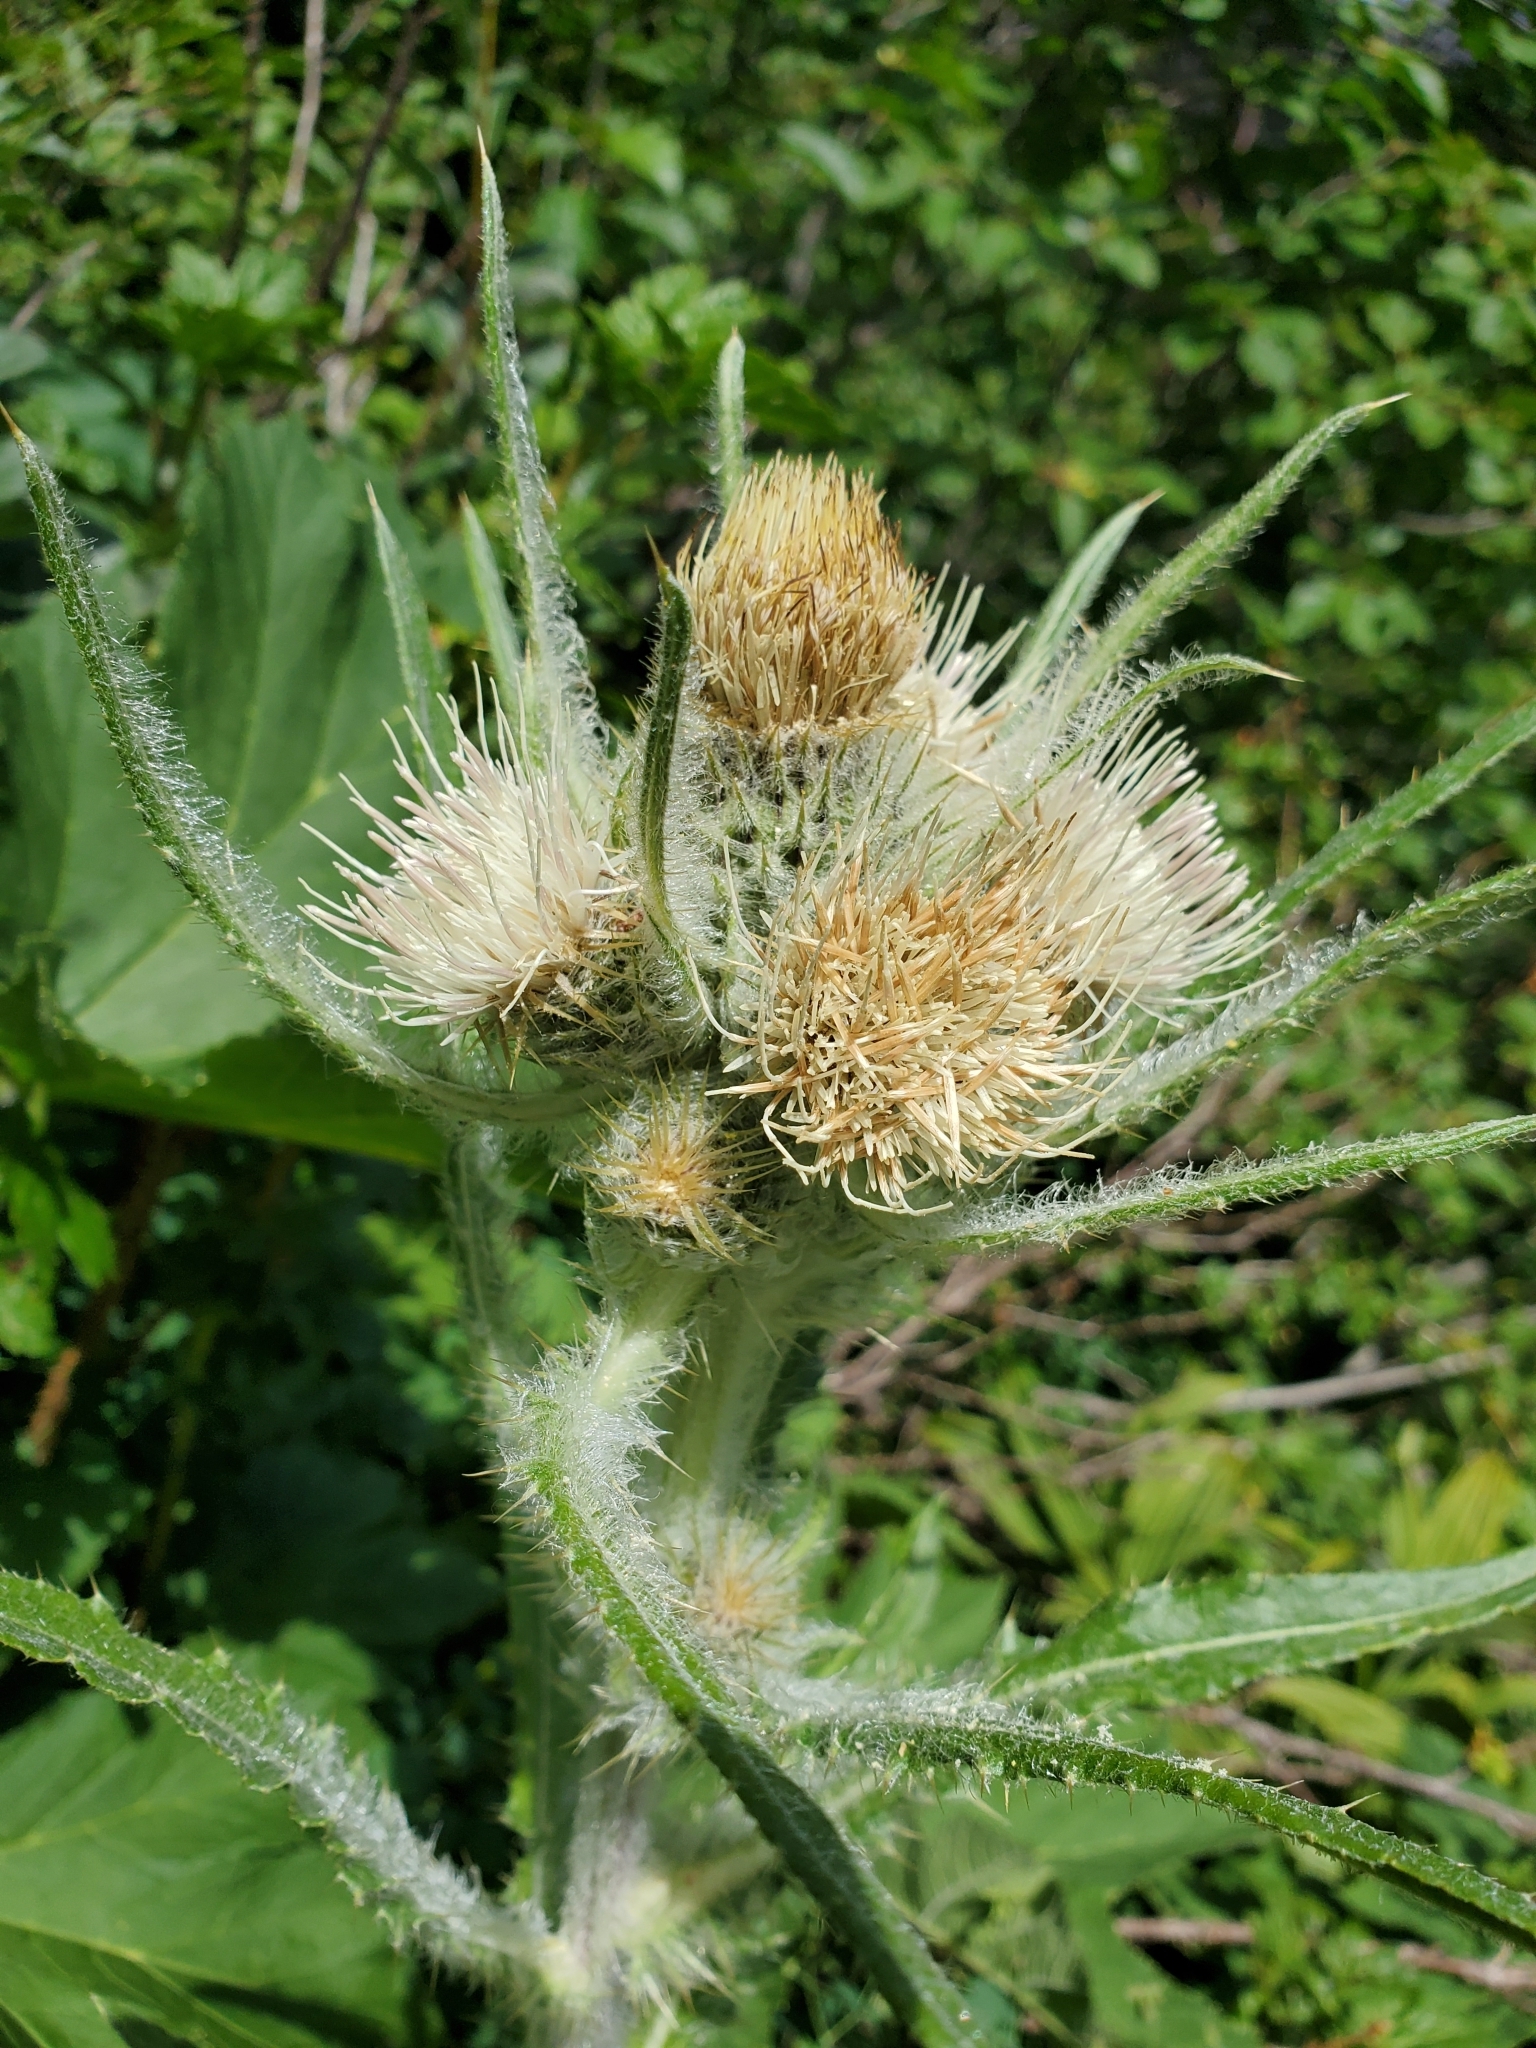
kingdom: Plantae
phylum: Tracheophyta
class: Magnoliopsida
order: Asterales
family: Asteraceae
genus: Cirsium
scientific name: Cirsium hookerianum
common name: Hooker's thistle
